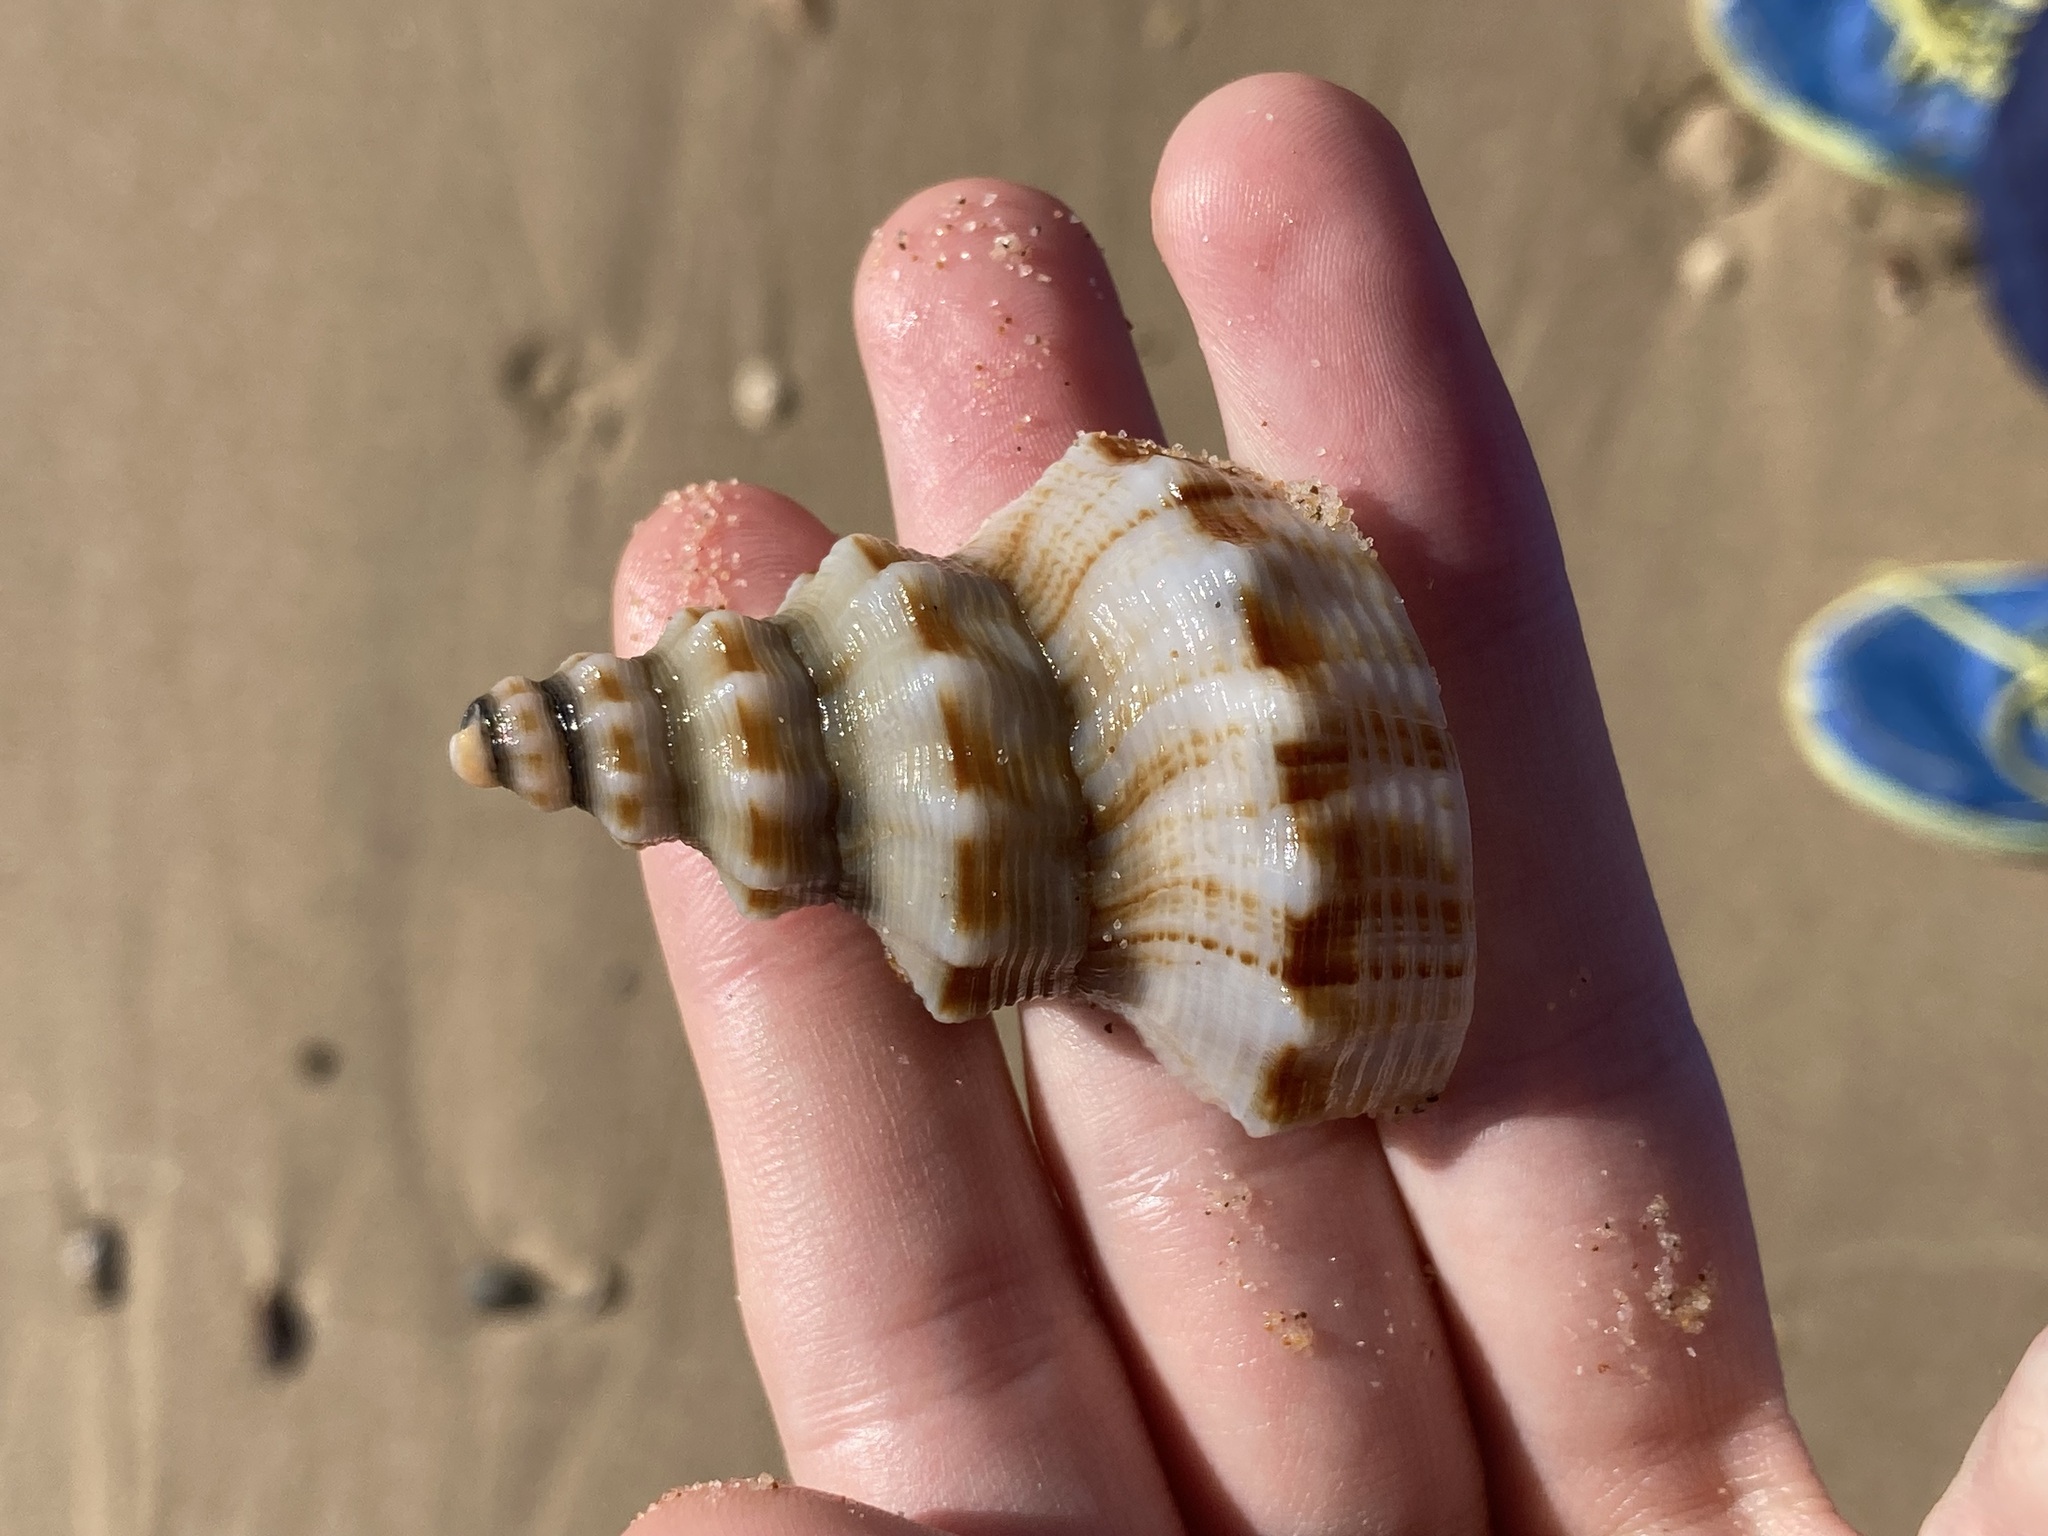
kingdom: Animalia
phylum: Mollusca
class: Gastropoda
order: Neogastropoda
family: Austrosiphonidae
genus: Penion
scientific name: Penion maximus
